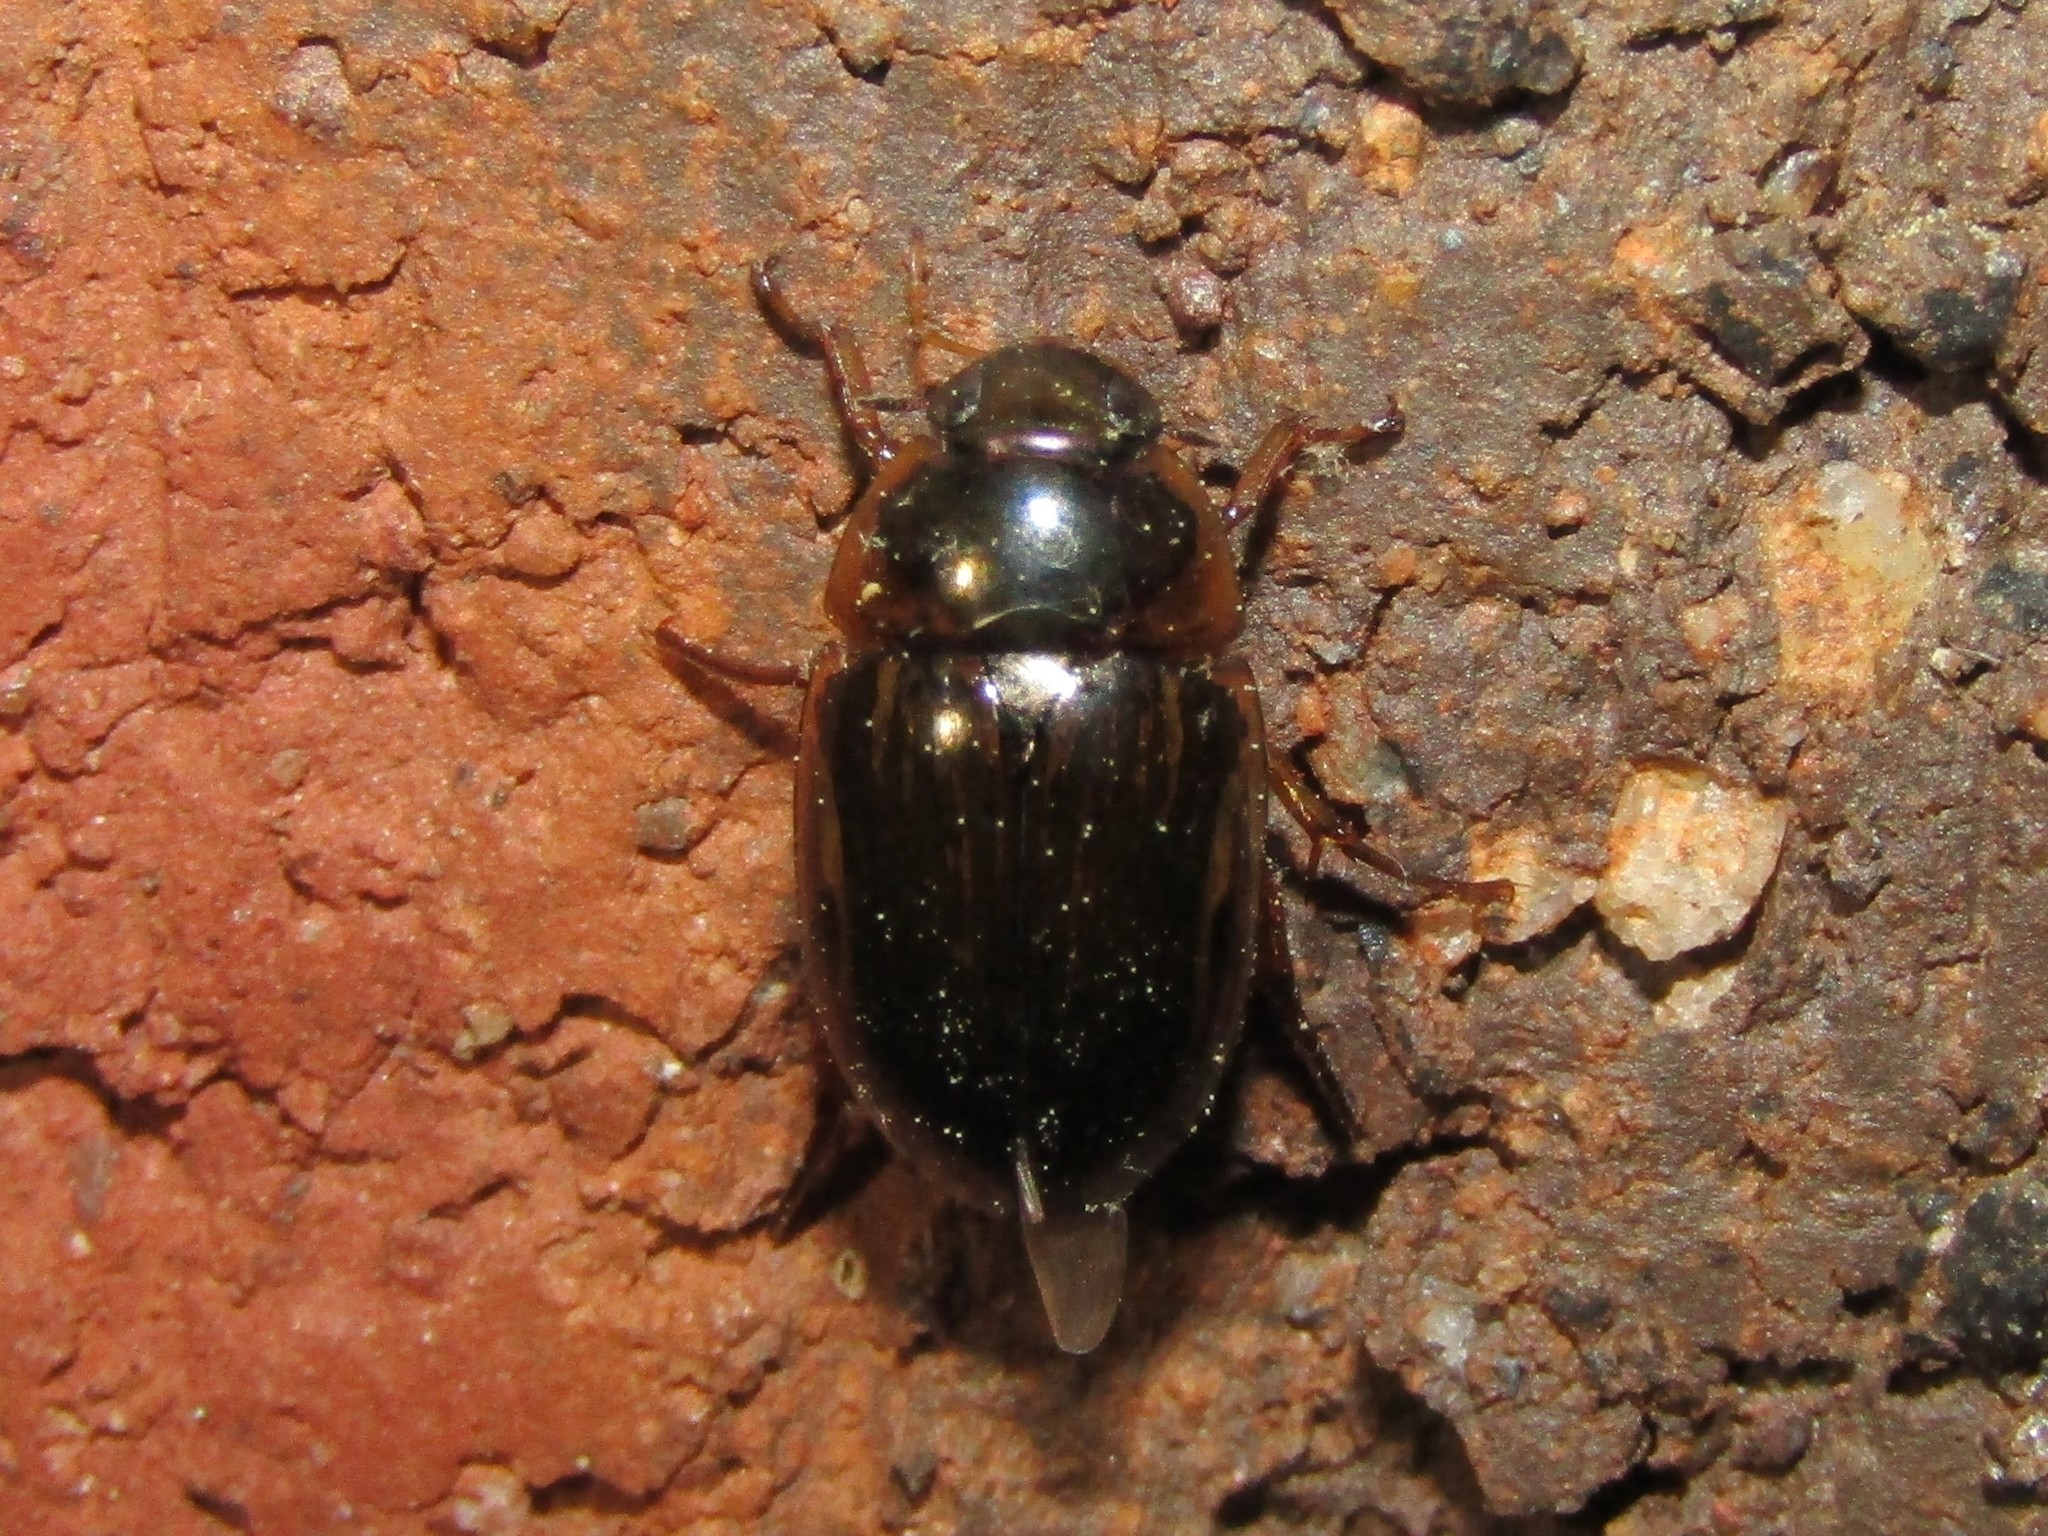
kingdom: Animalia
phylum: Arthropoda
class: Insecta
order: Coleoptera
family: Hydrophilidae
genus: Tropisternus
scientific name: Tropisternus collaris
